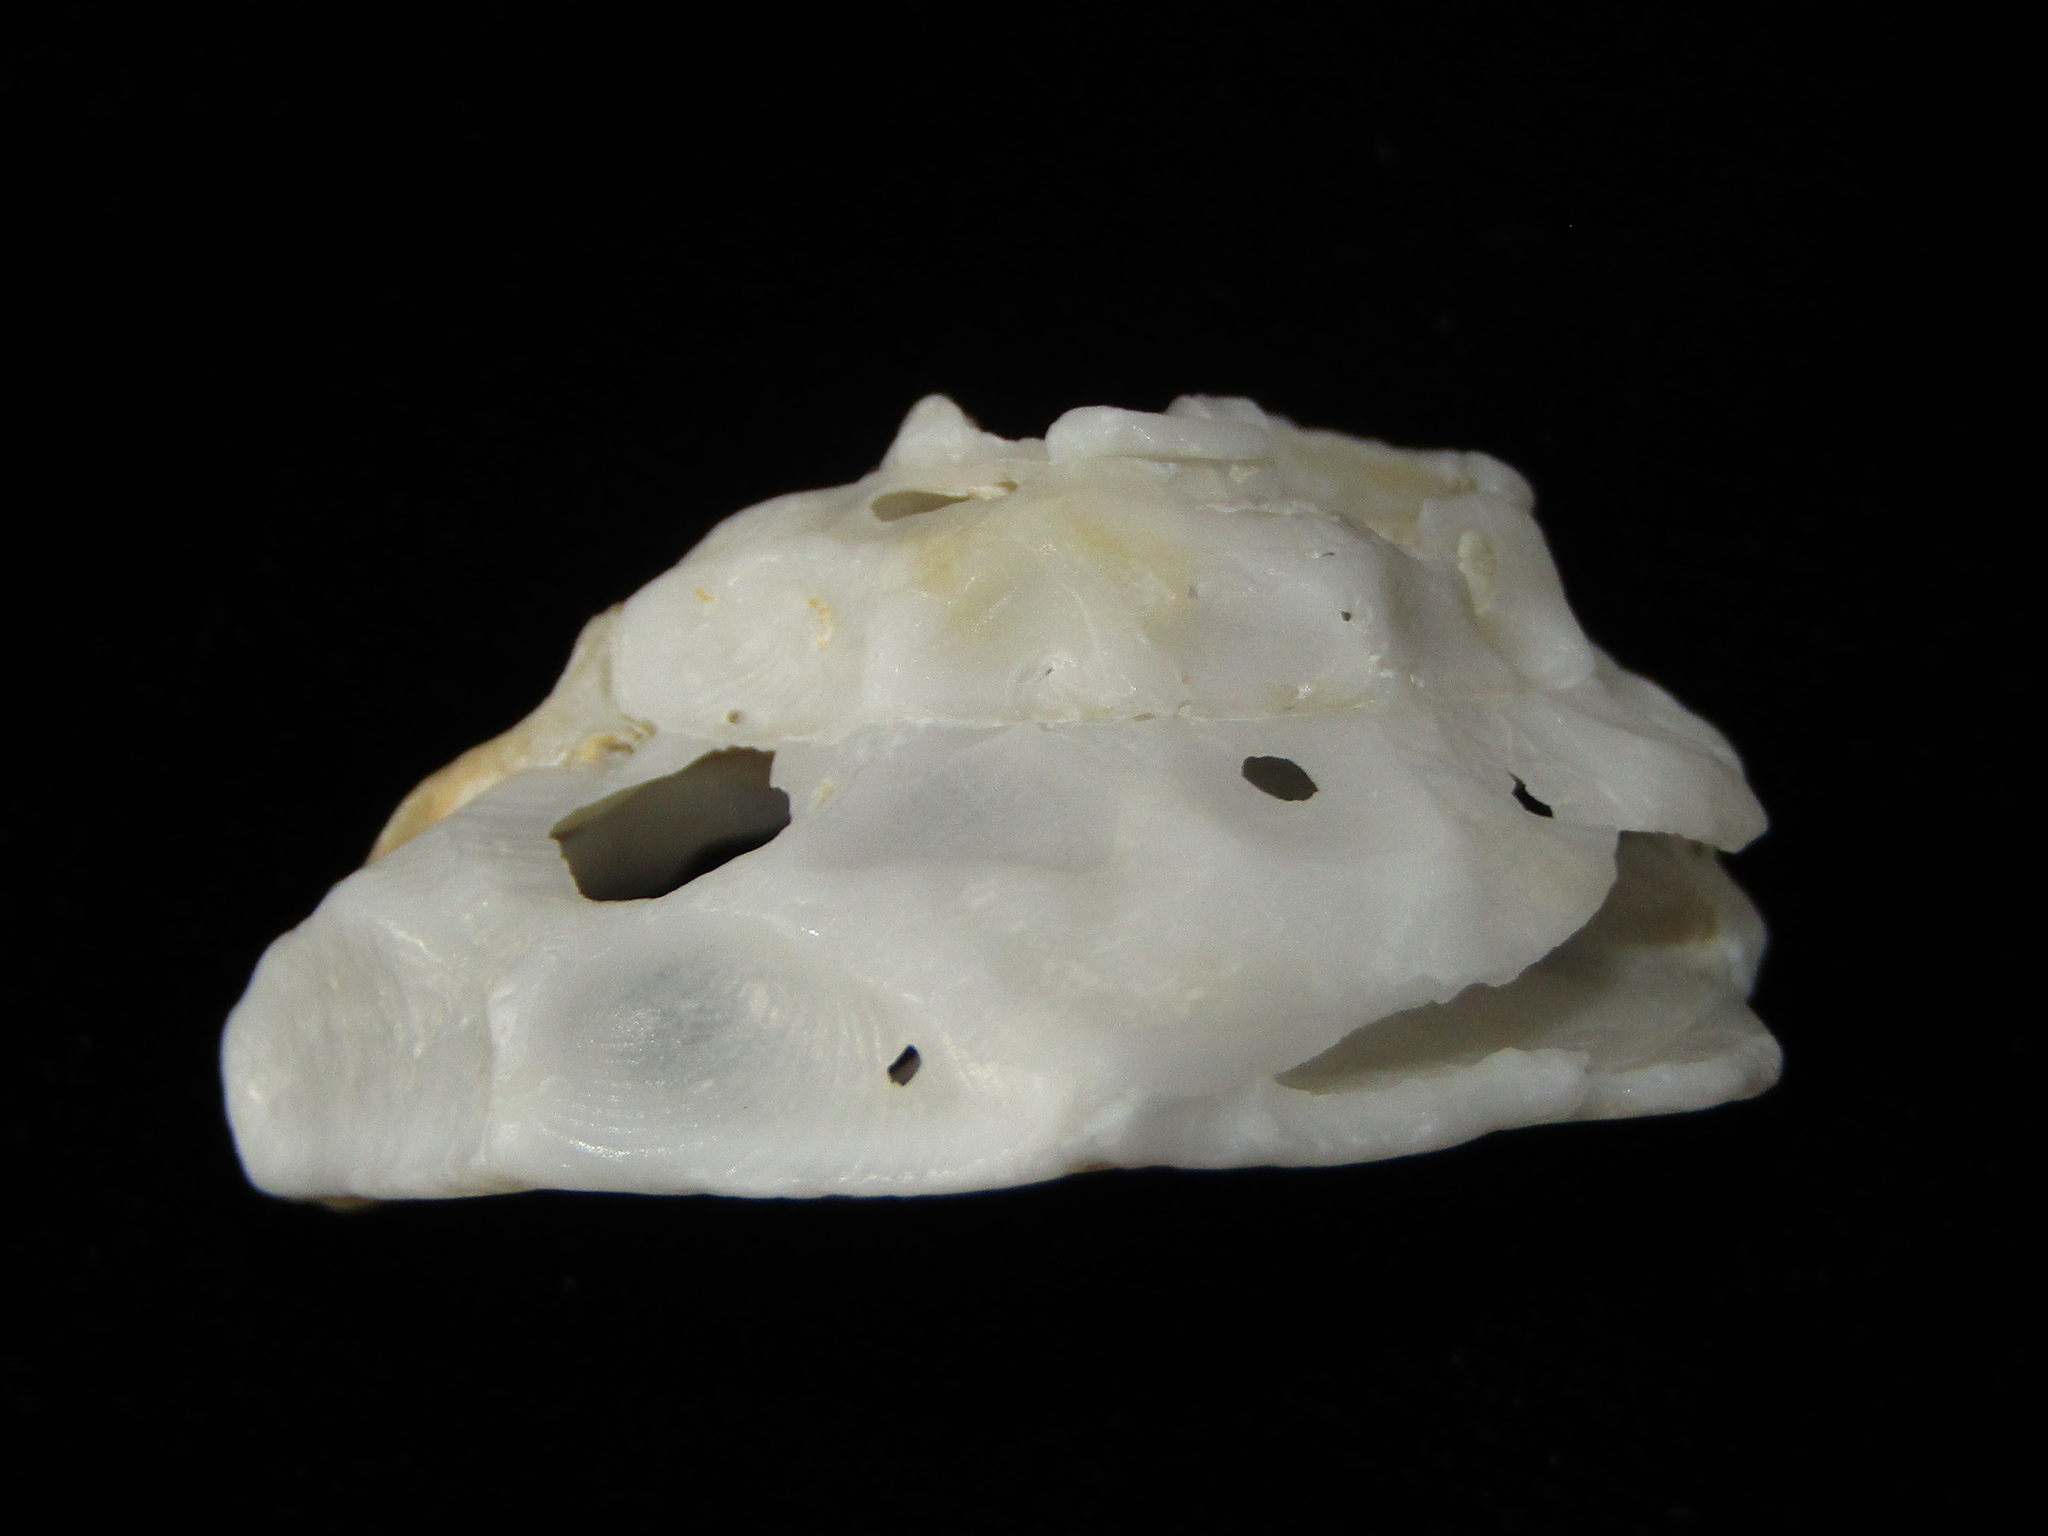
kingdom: Animalia
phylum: Mollusca
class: Gastropoda
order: Littorinimorpha
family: Xenophoridae
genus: Xenophora
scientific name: Xenophora neozelanica
